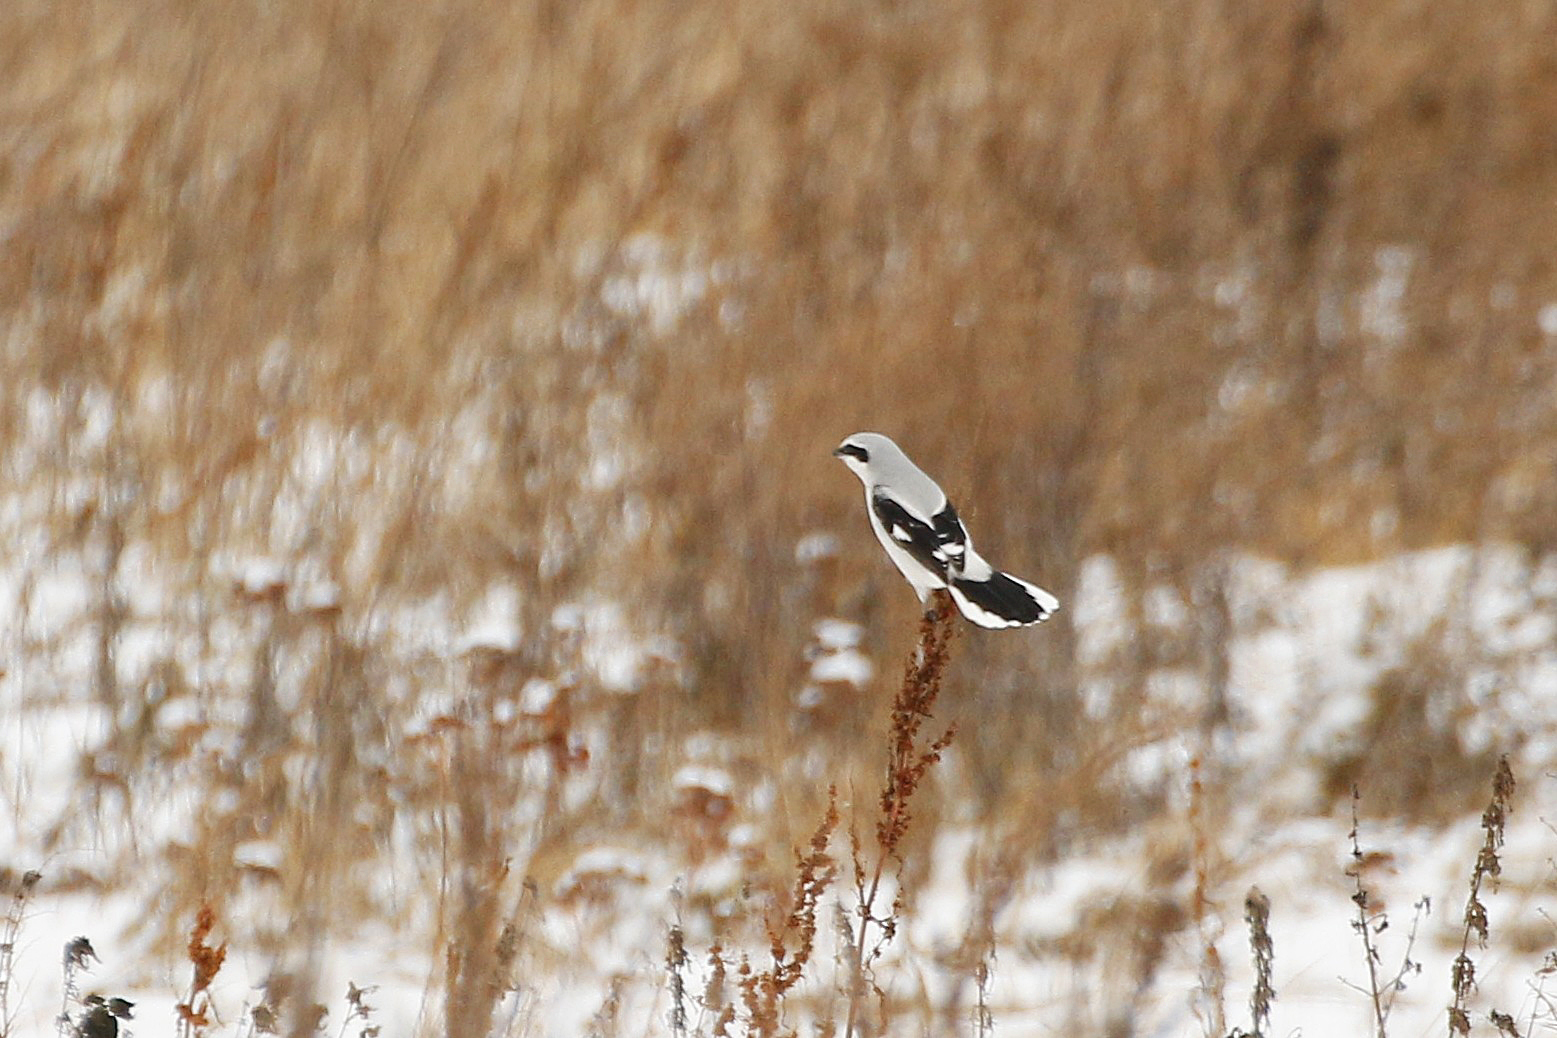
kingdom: Animalia
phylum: Chordata
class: Aves
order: Passeriformes
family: Laniidae
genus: Lanius
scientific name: Lanius excubitor
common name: Great grey shrike
